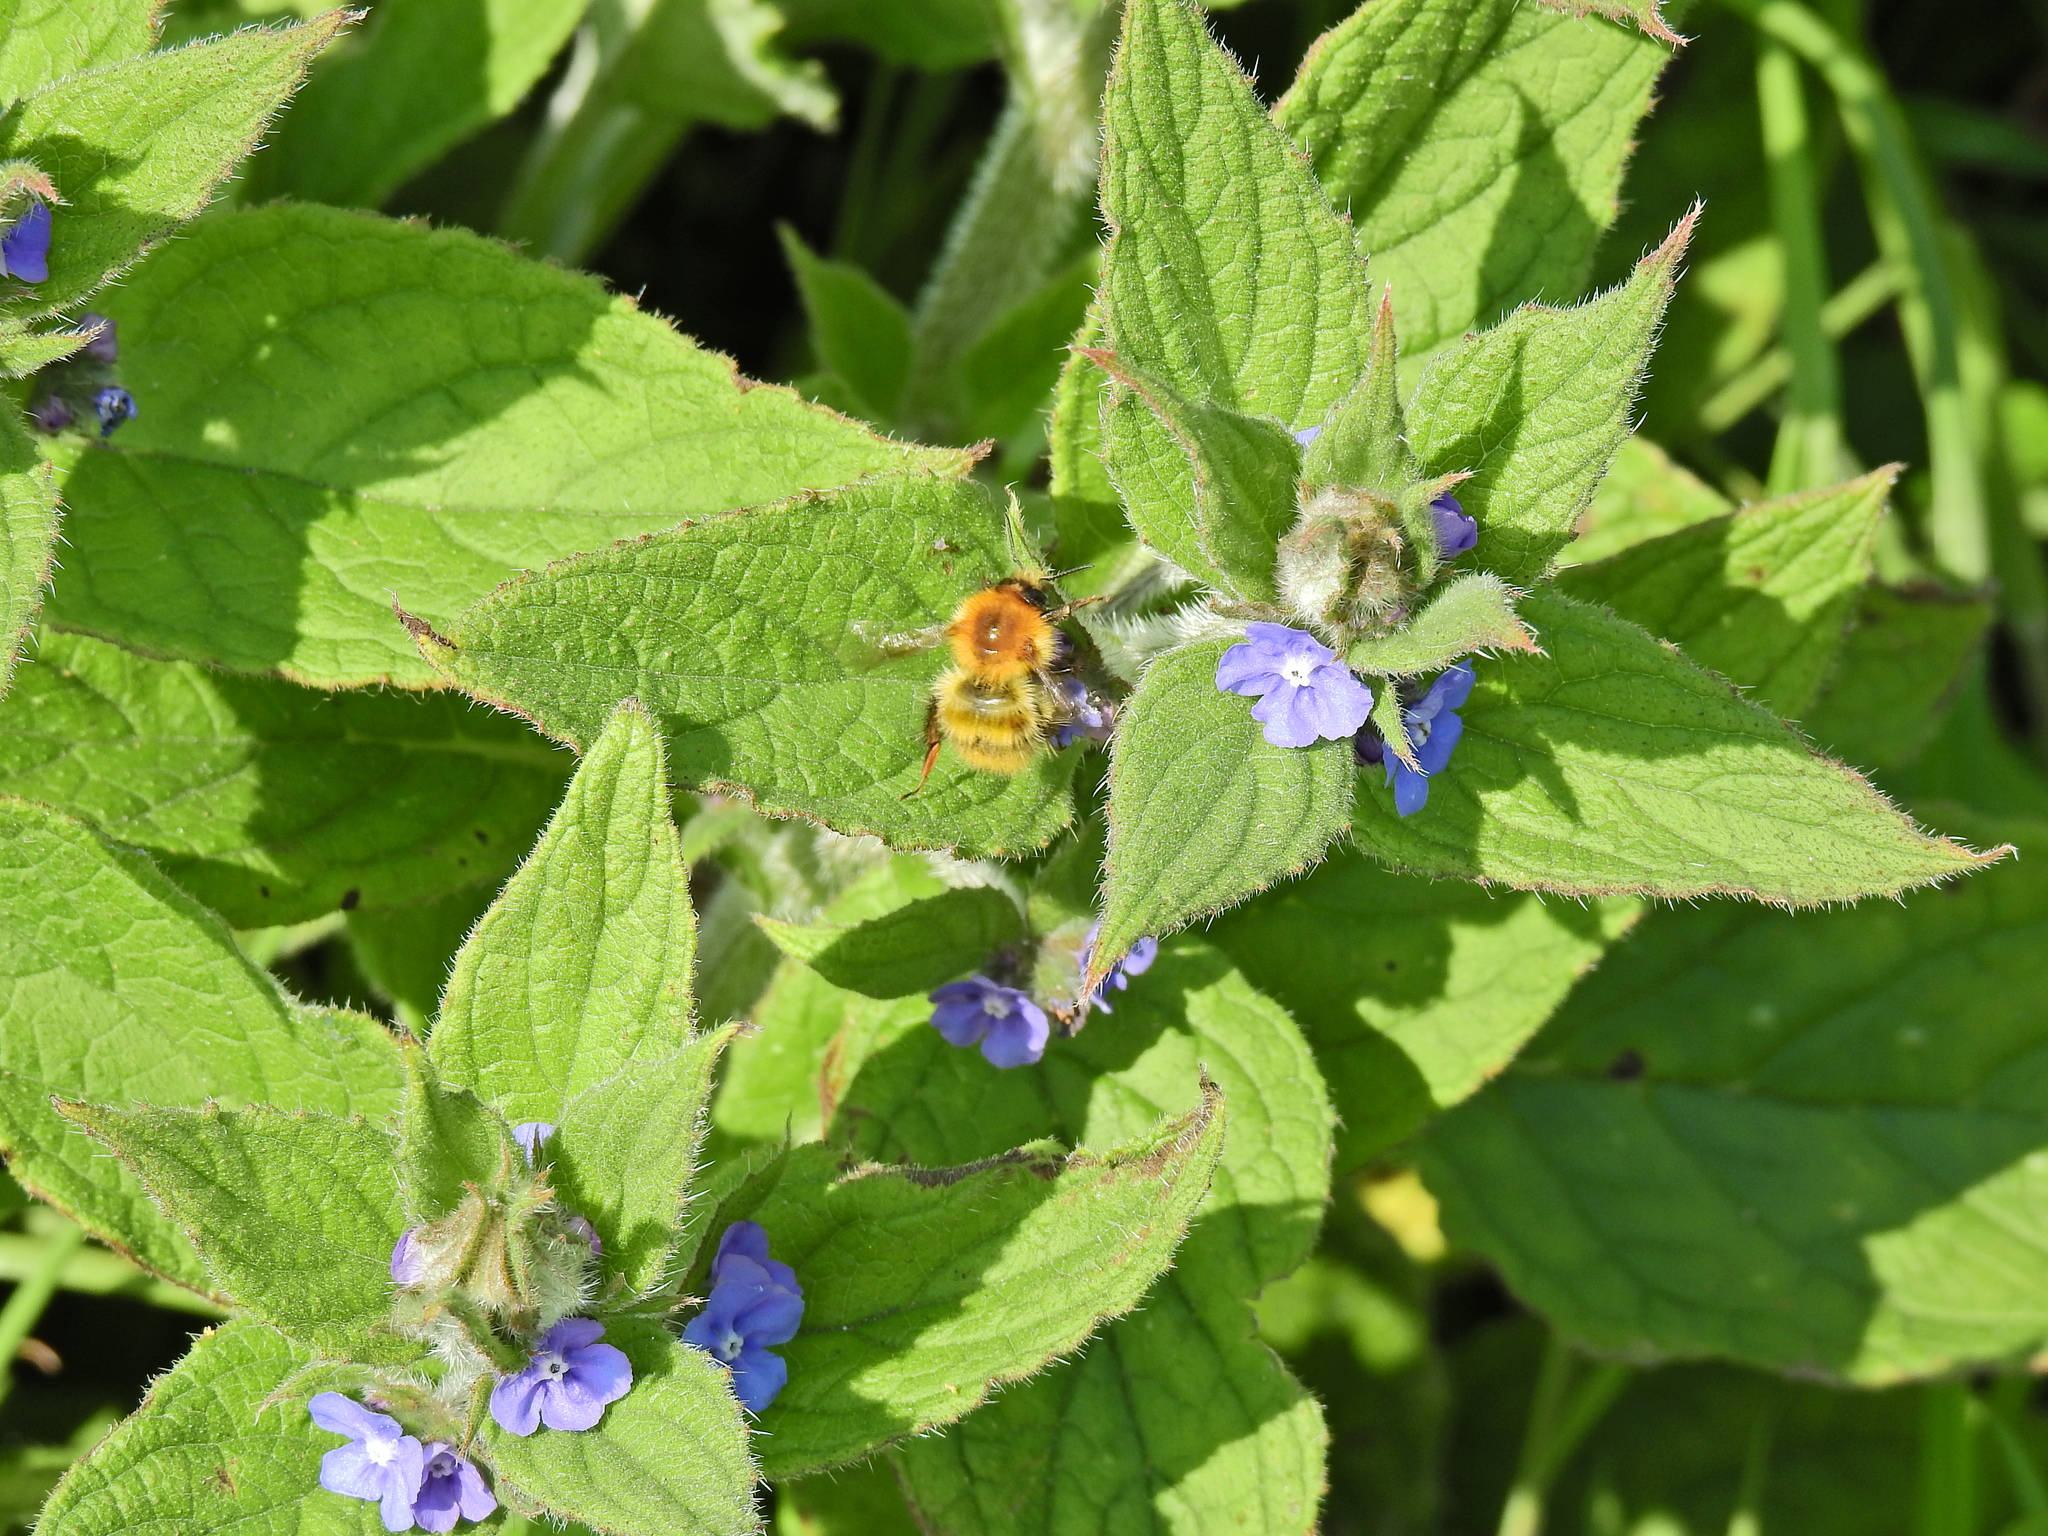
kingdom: Animalia
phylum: Arthropoda
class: Insecta
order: Hymenoptera
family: Apidae
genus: Bombus
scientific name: Bombus pascuorum
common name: Common carder bee
